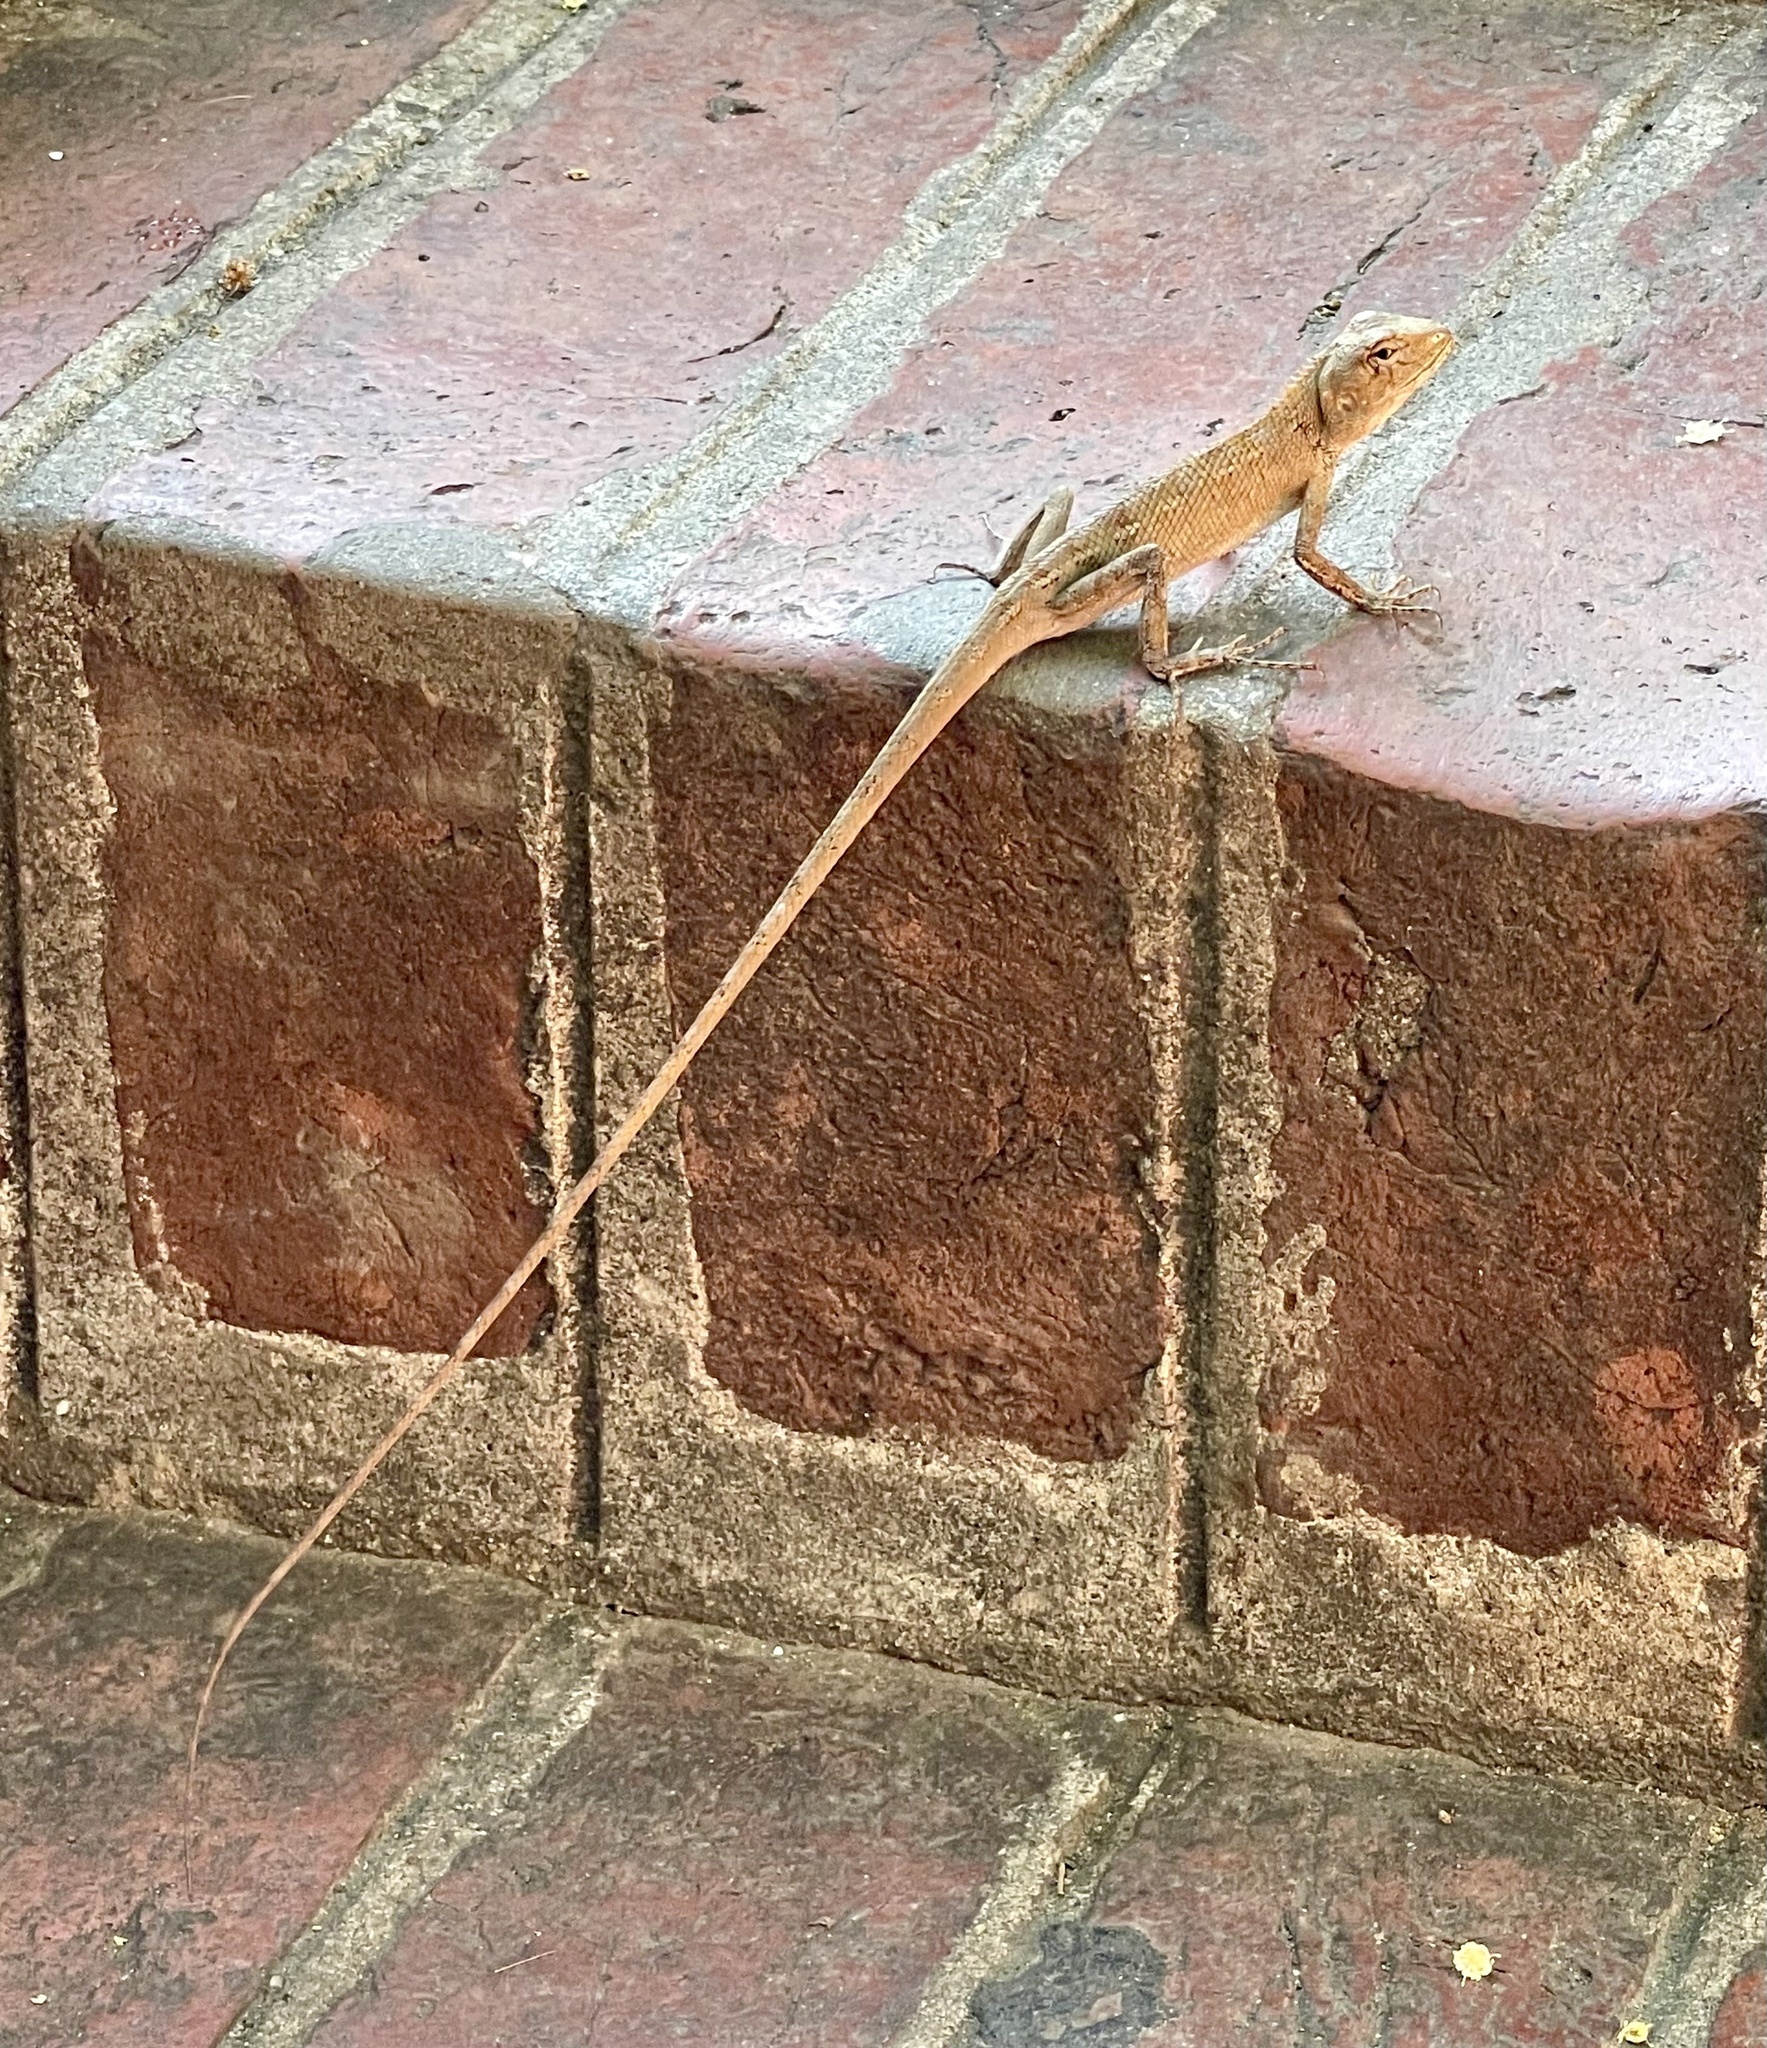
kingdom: Animalia
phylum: Chordata
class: Squamata
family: Agamidae
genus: Calotes
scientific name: Calotes versicolor
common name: Oriental garden lizard
